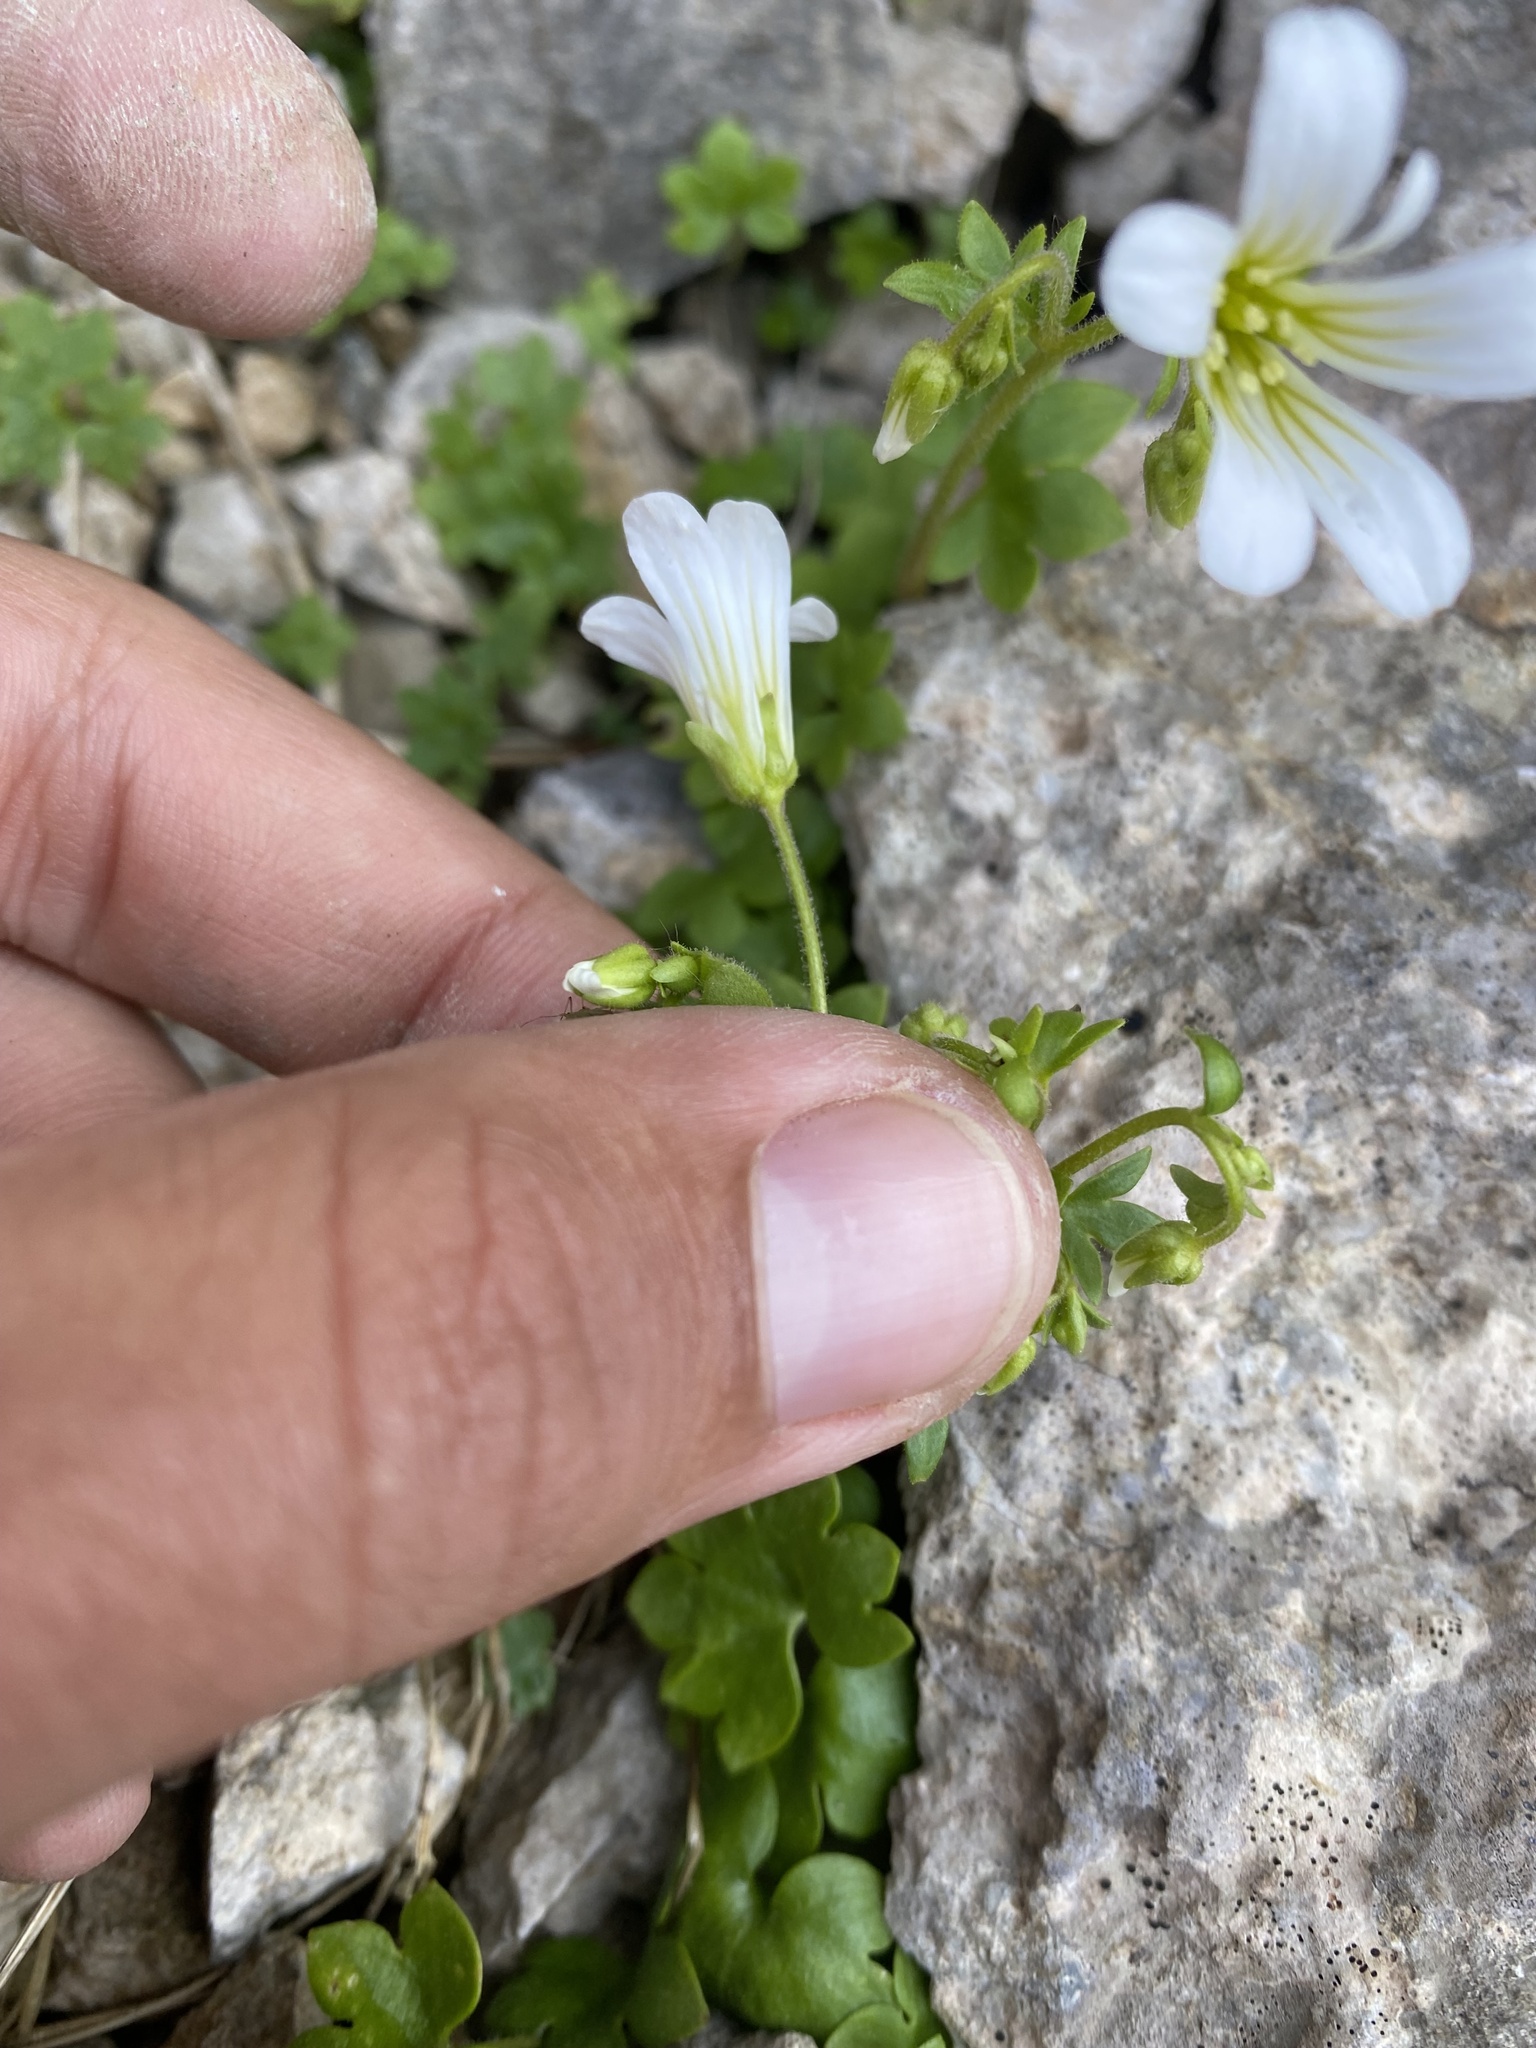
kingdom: Plantae
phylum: Tracheophyta
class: Magnoliopsida
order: Saxifragales
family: Saxifragaceae
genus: Saxifraga
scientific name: Saxifraga sibirica
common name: Siberian saxifrage
